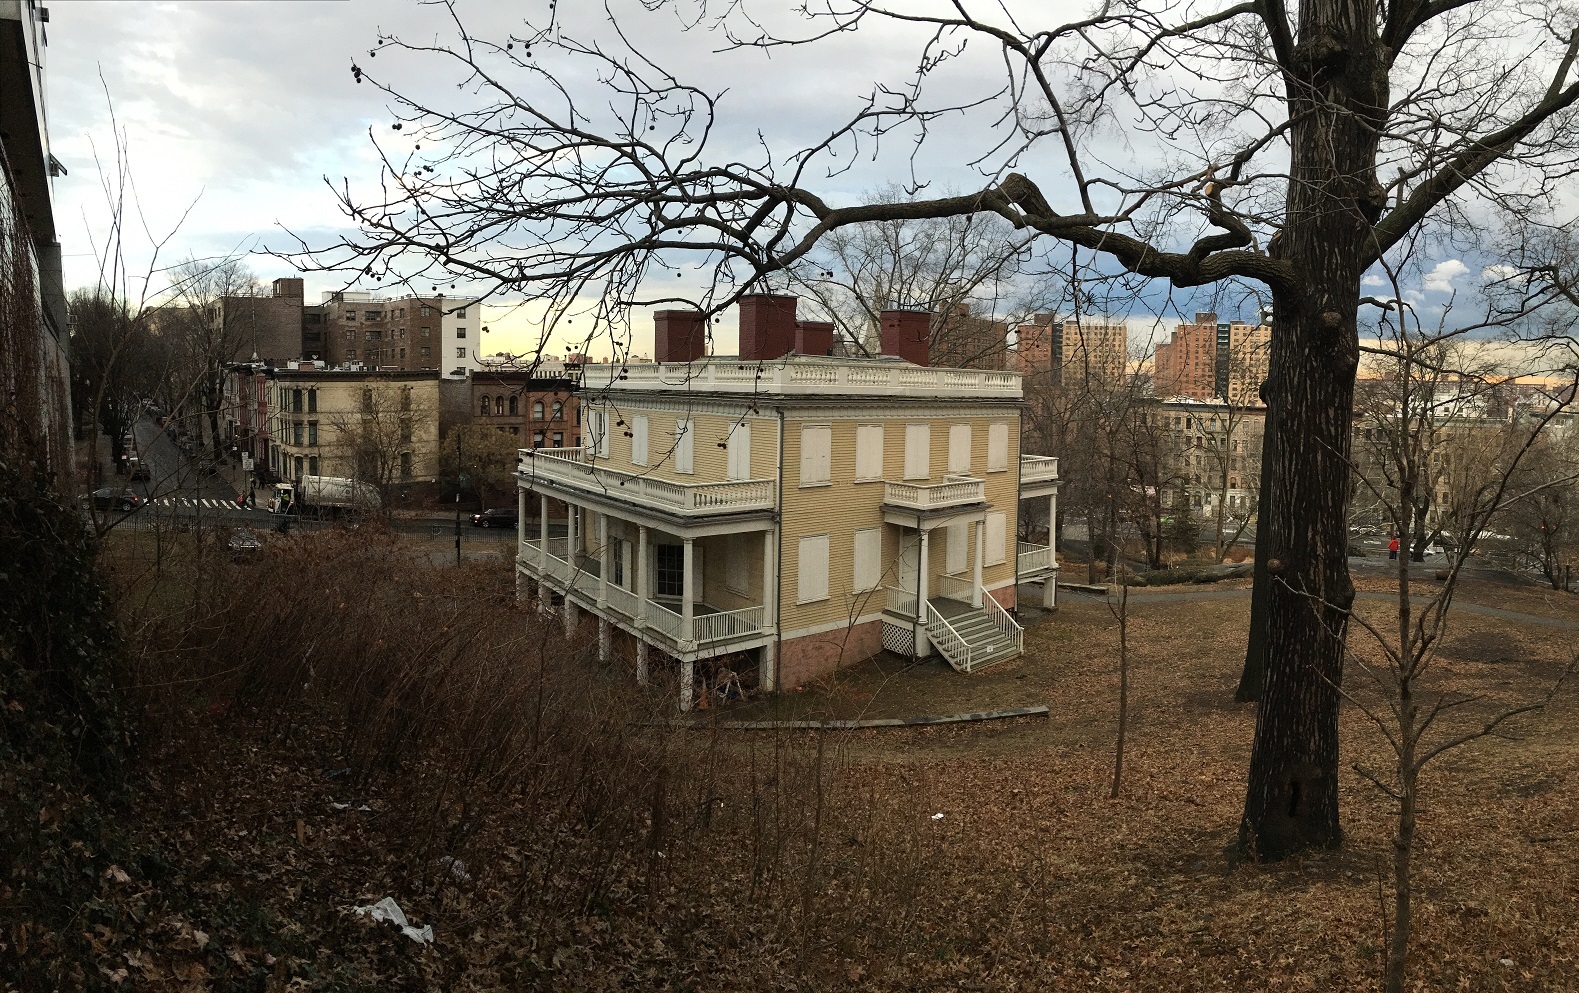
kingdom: Plantae
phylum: Tracheophyta
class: Magnoliopsida
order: Saxifragales
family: Altingiaceae
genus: Liquidambar
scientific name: Liquidambar styraciflua
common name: Sweet gum
